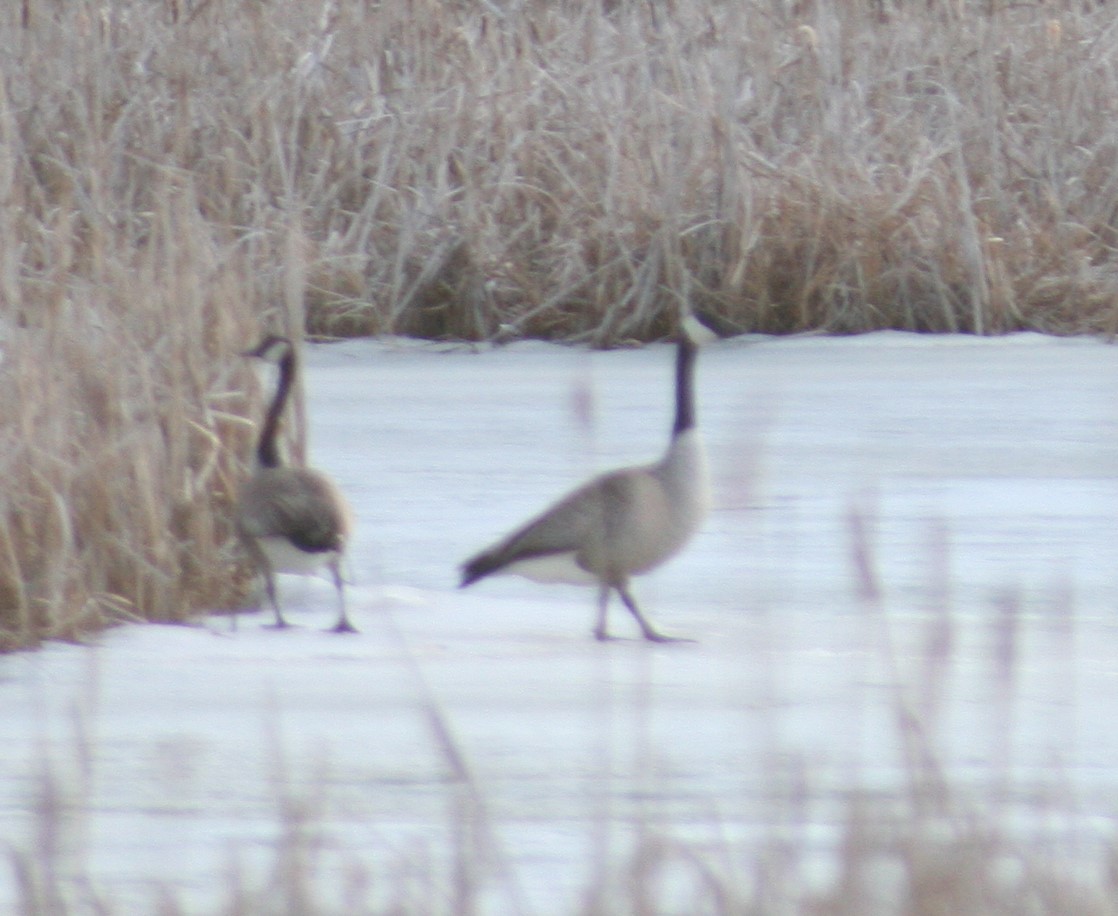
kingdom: Animalia
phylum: Chordata
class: Aves
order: Anseriformes
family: Anatidae
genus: Branta
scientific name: Branta canadensis
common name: Canada goose
